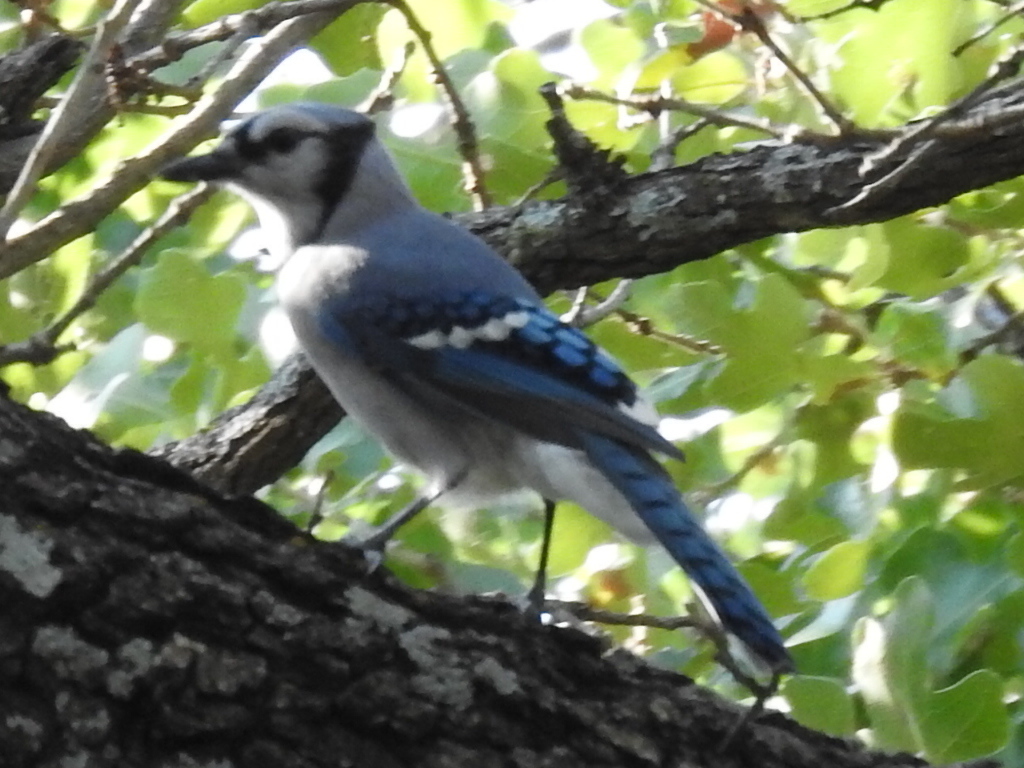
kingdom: Animalia
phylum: Chordata
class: Aves
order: Passeriformes
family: Corvidae
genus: Cyanocitta
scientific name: Cyanocitta cristata
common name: Blue jay
